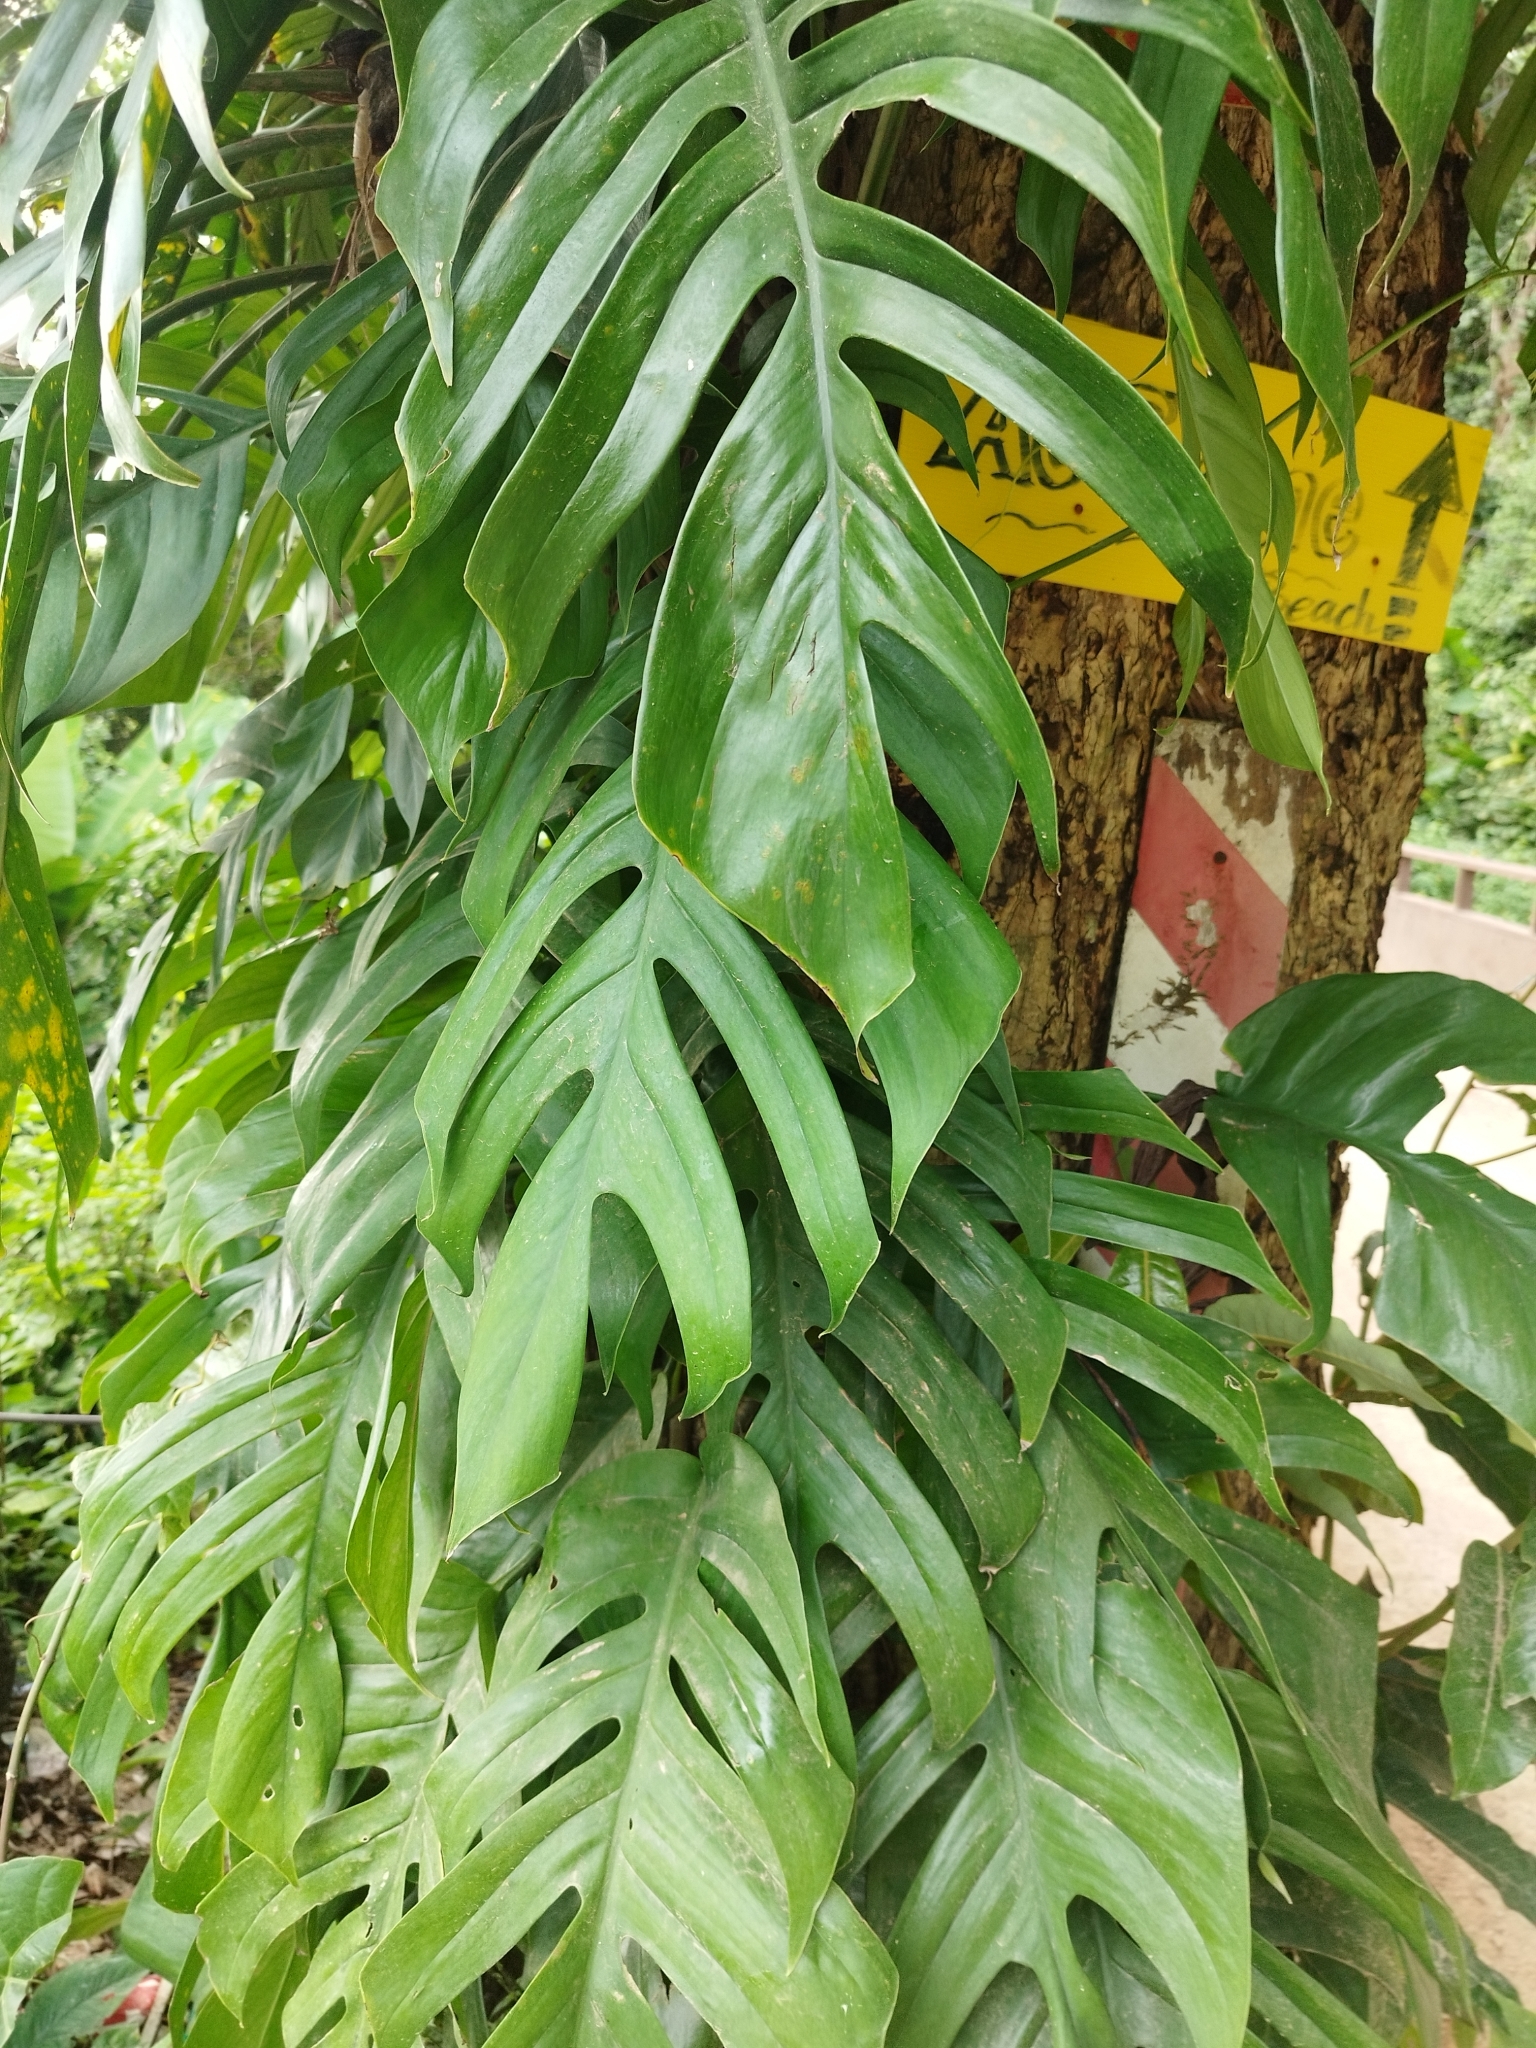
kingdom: Plantae
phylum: Tracheophyta
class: Liliopsida
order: Alismatales
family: Araceae
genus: Epipremnum
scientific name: Epipremnum pinnatum
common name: Centipede tongavine
